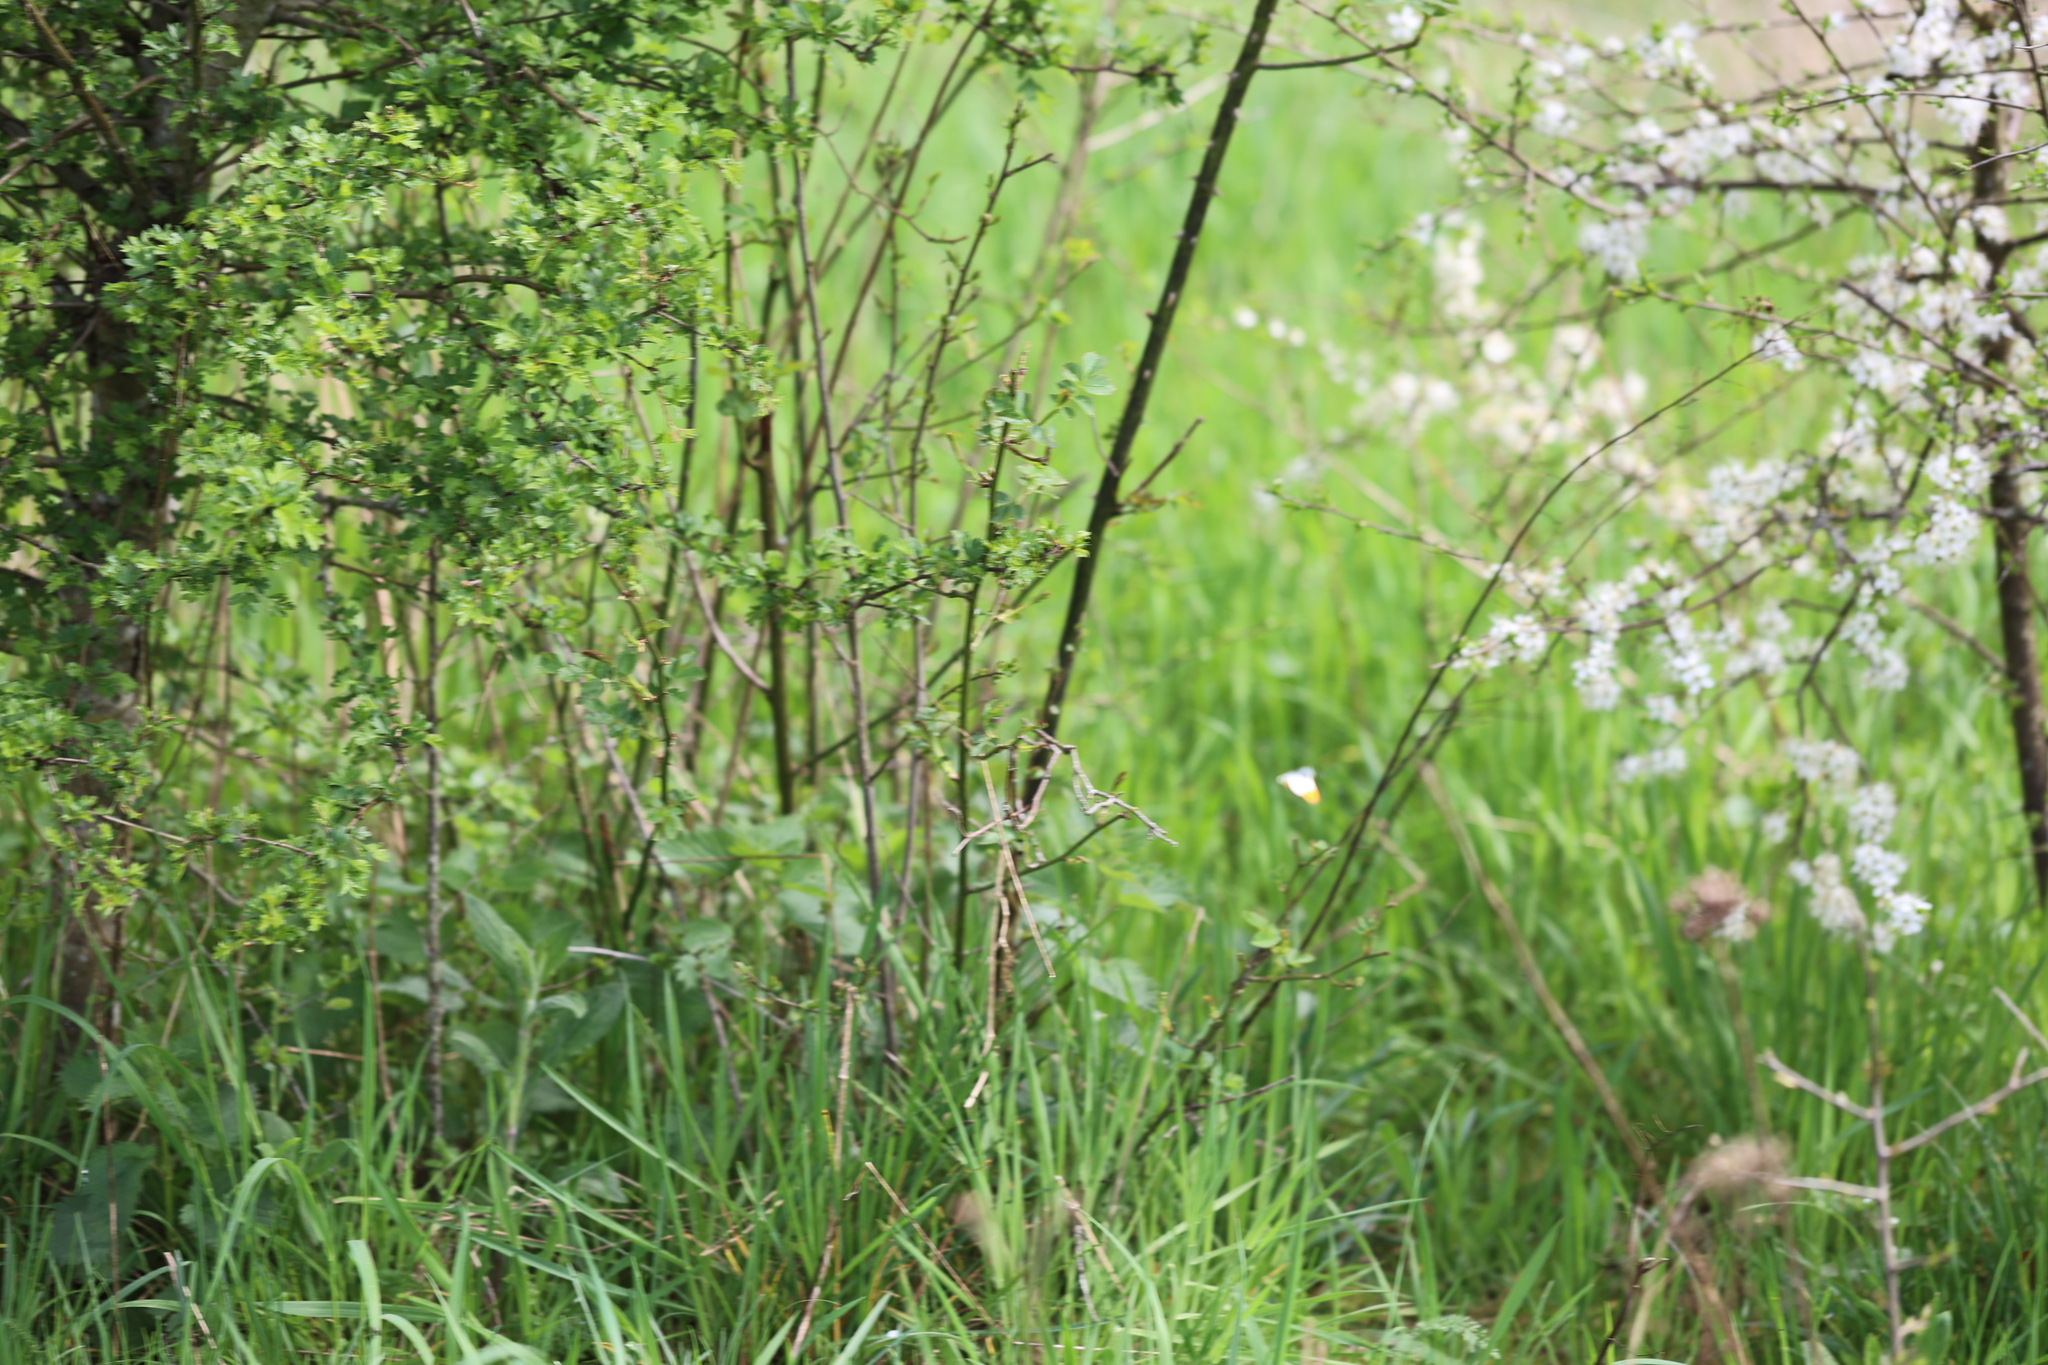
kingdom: Animalia
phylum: Arthropoda
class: Insecta
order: Lepidoptera
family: Pieridae
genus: Anthocharis
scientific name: Anthocharis cardamines
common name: Orange-tip
